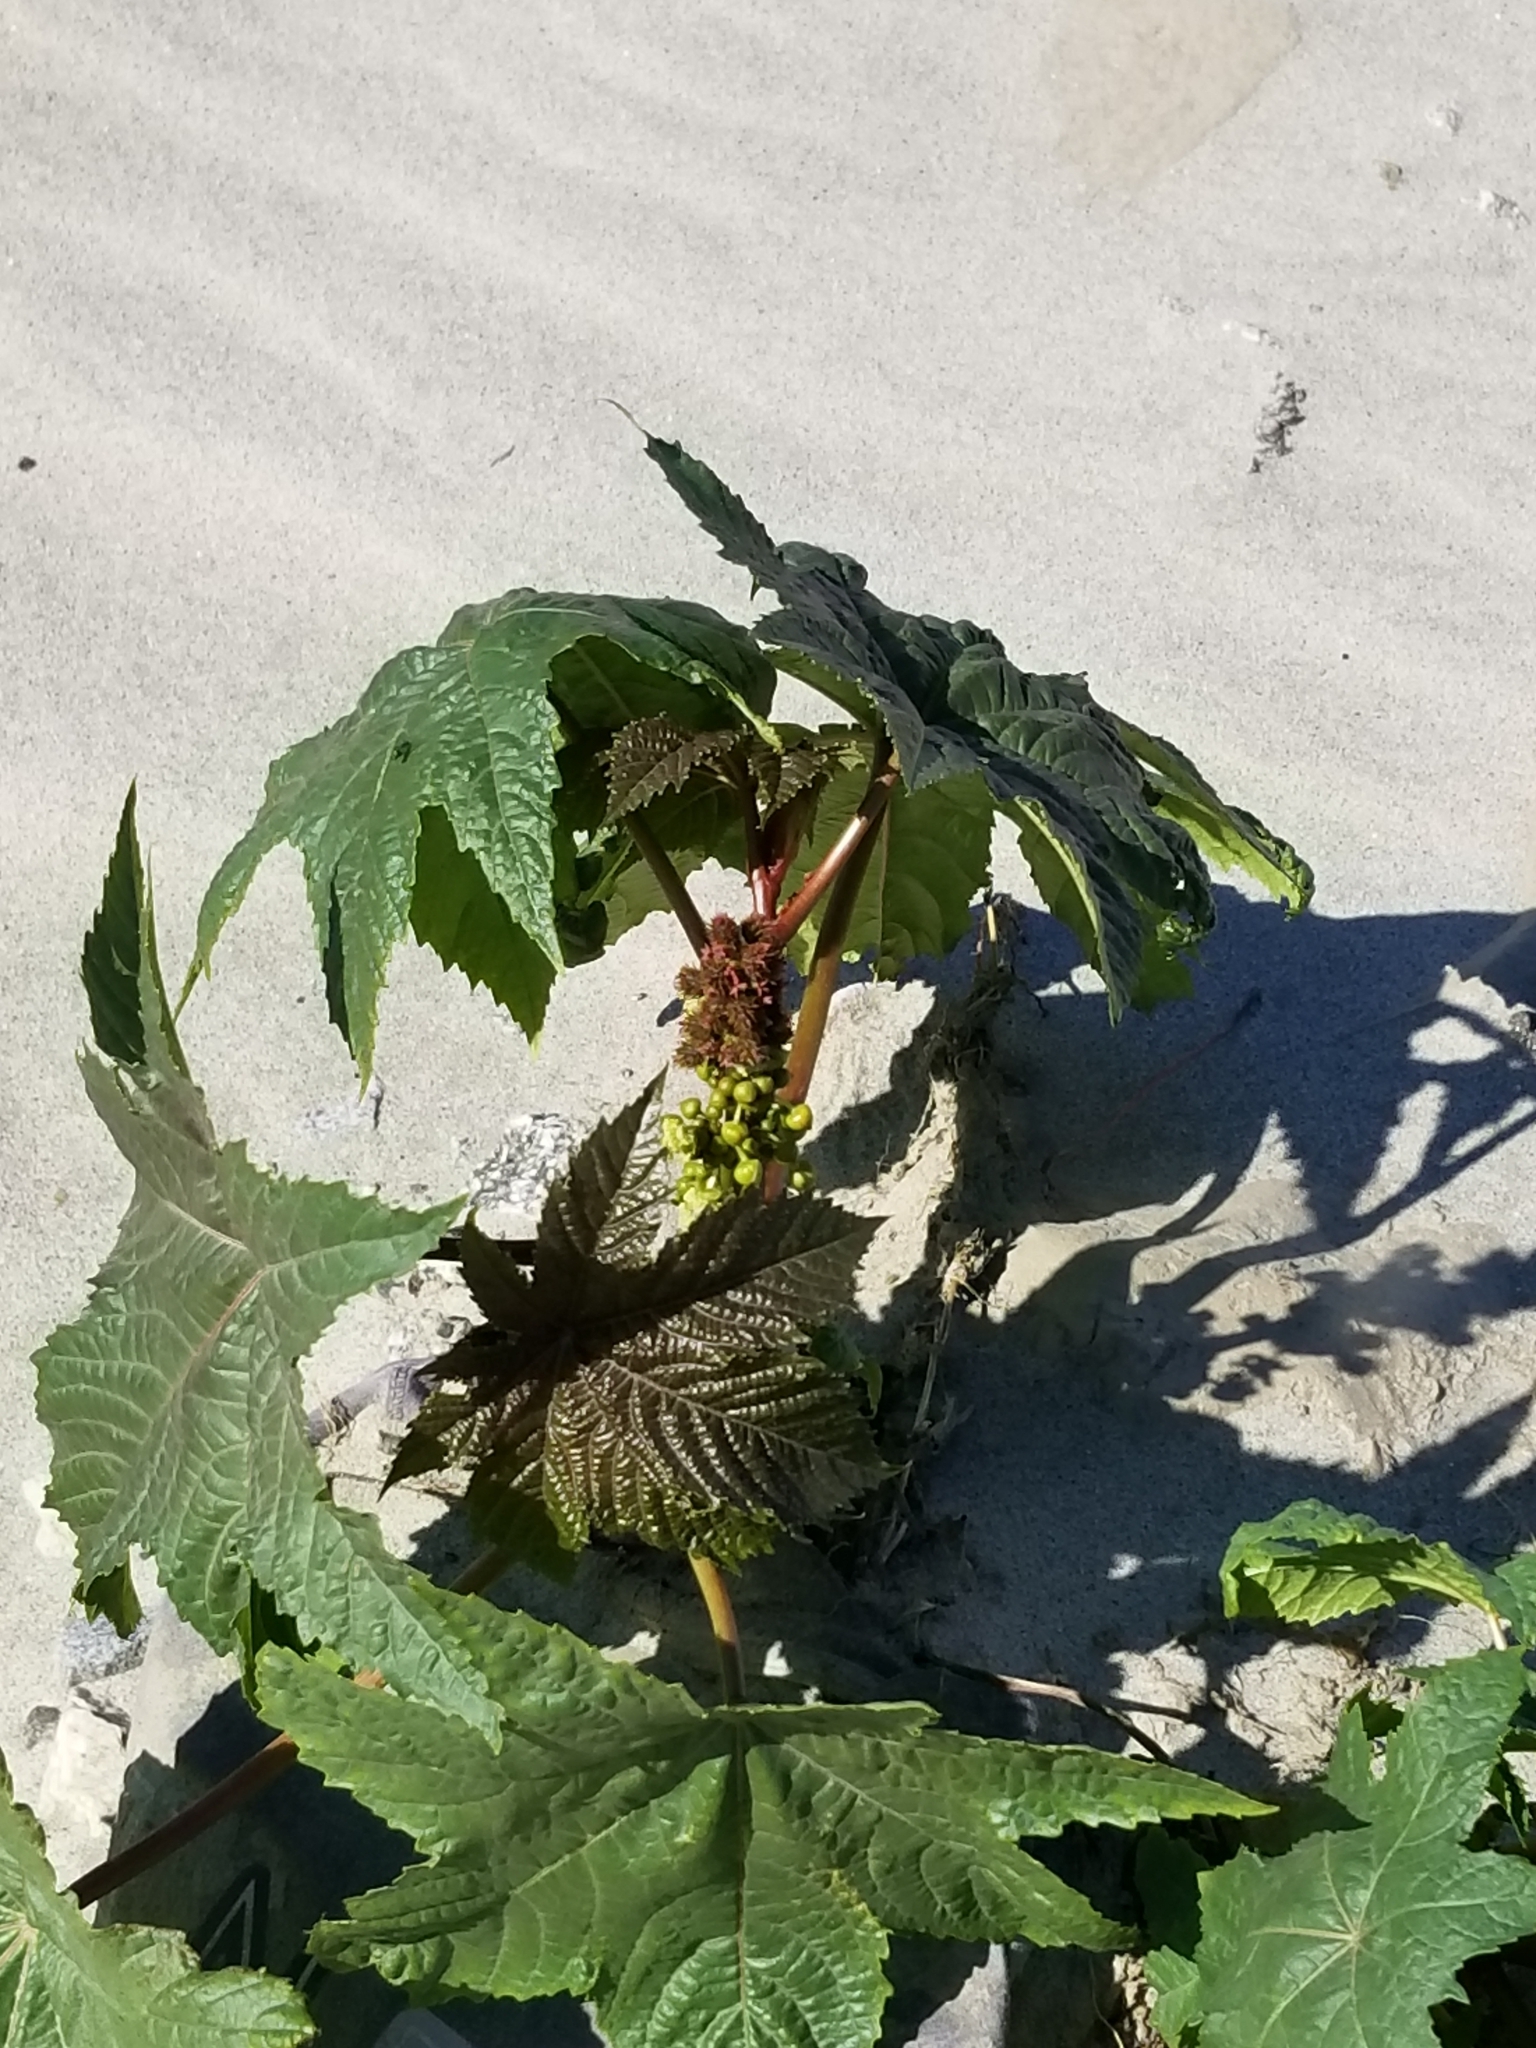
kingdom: Plantae
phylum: Tracheophyta
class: Magnoliopsida
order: Malpighiales
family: Euphorbiaceae
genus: Ricinus
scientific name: Ricinus communis
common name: Castor-oil-plant
